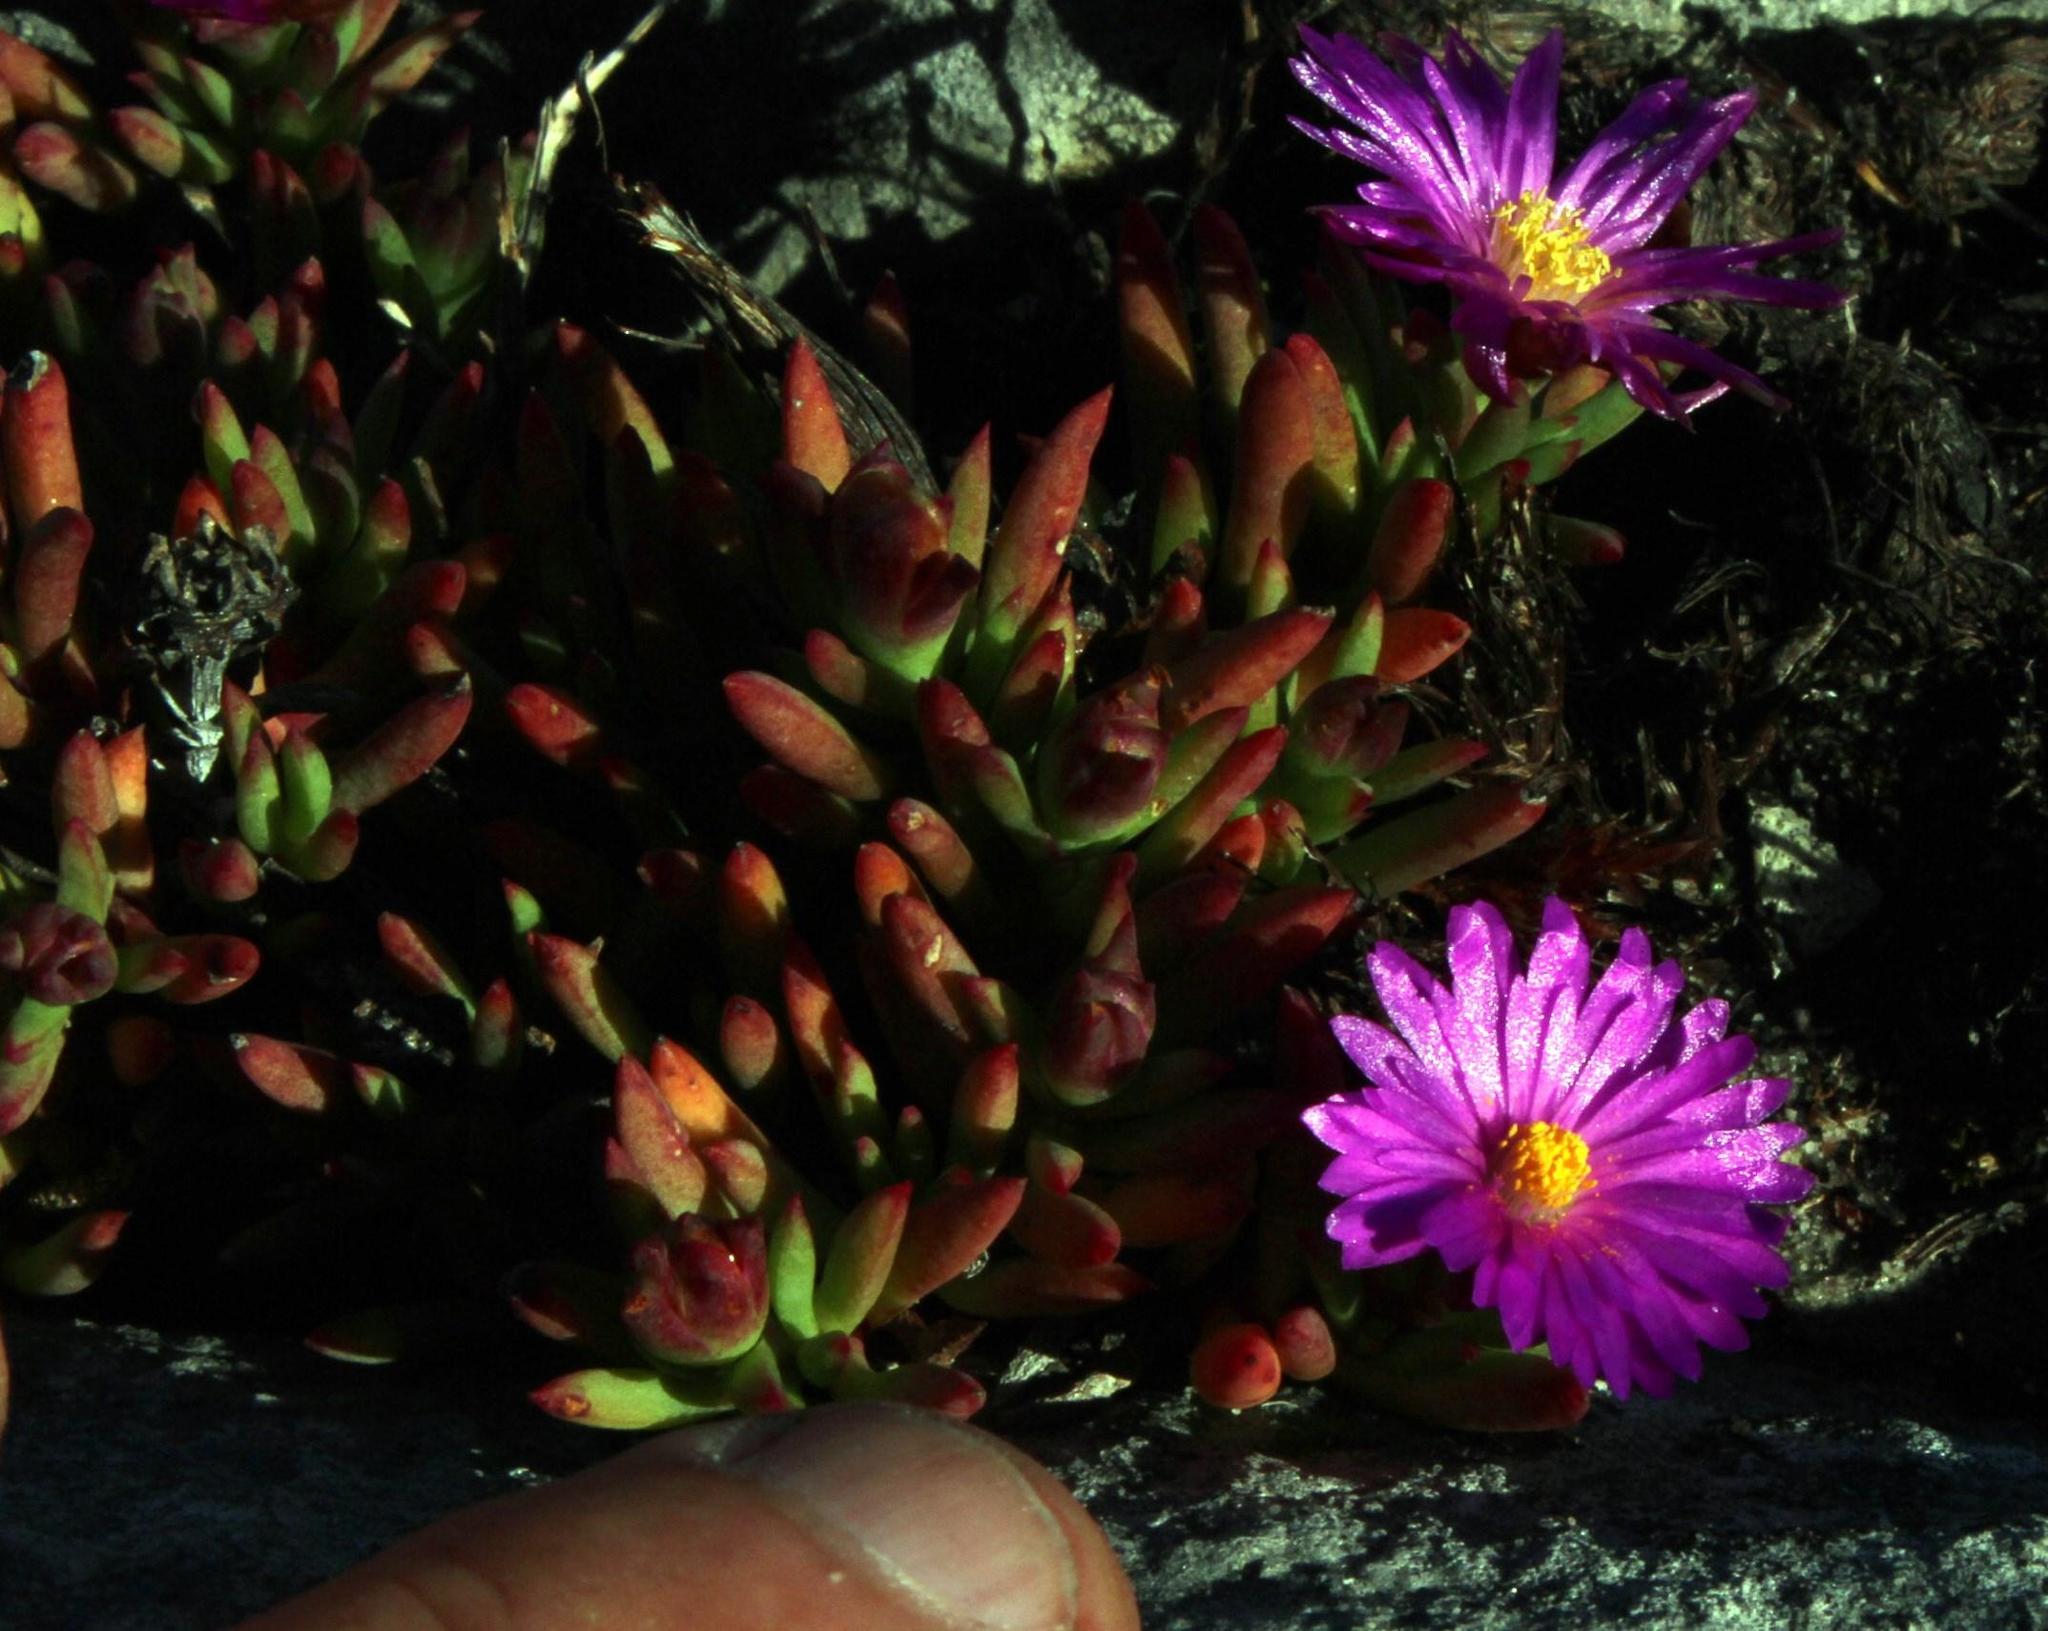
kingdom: Plantae
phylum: Tracheophyta
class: Magnoliopsida
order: Caryophyllales
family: Aizoaceae
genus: Lampranthus
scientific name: Lampranthus ceriseus
